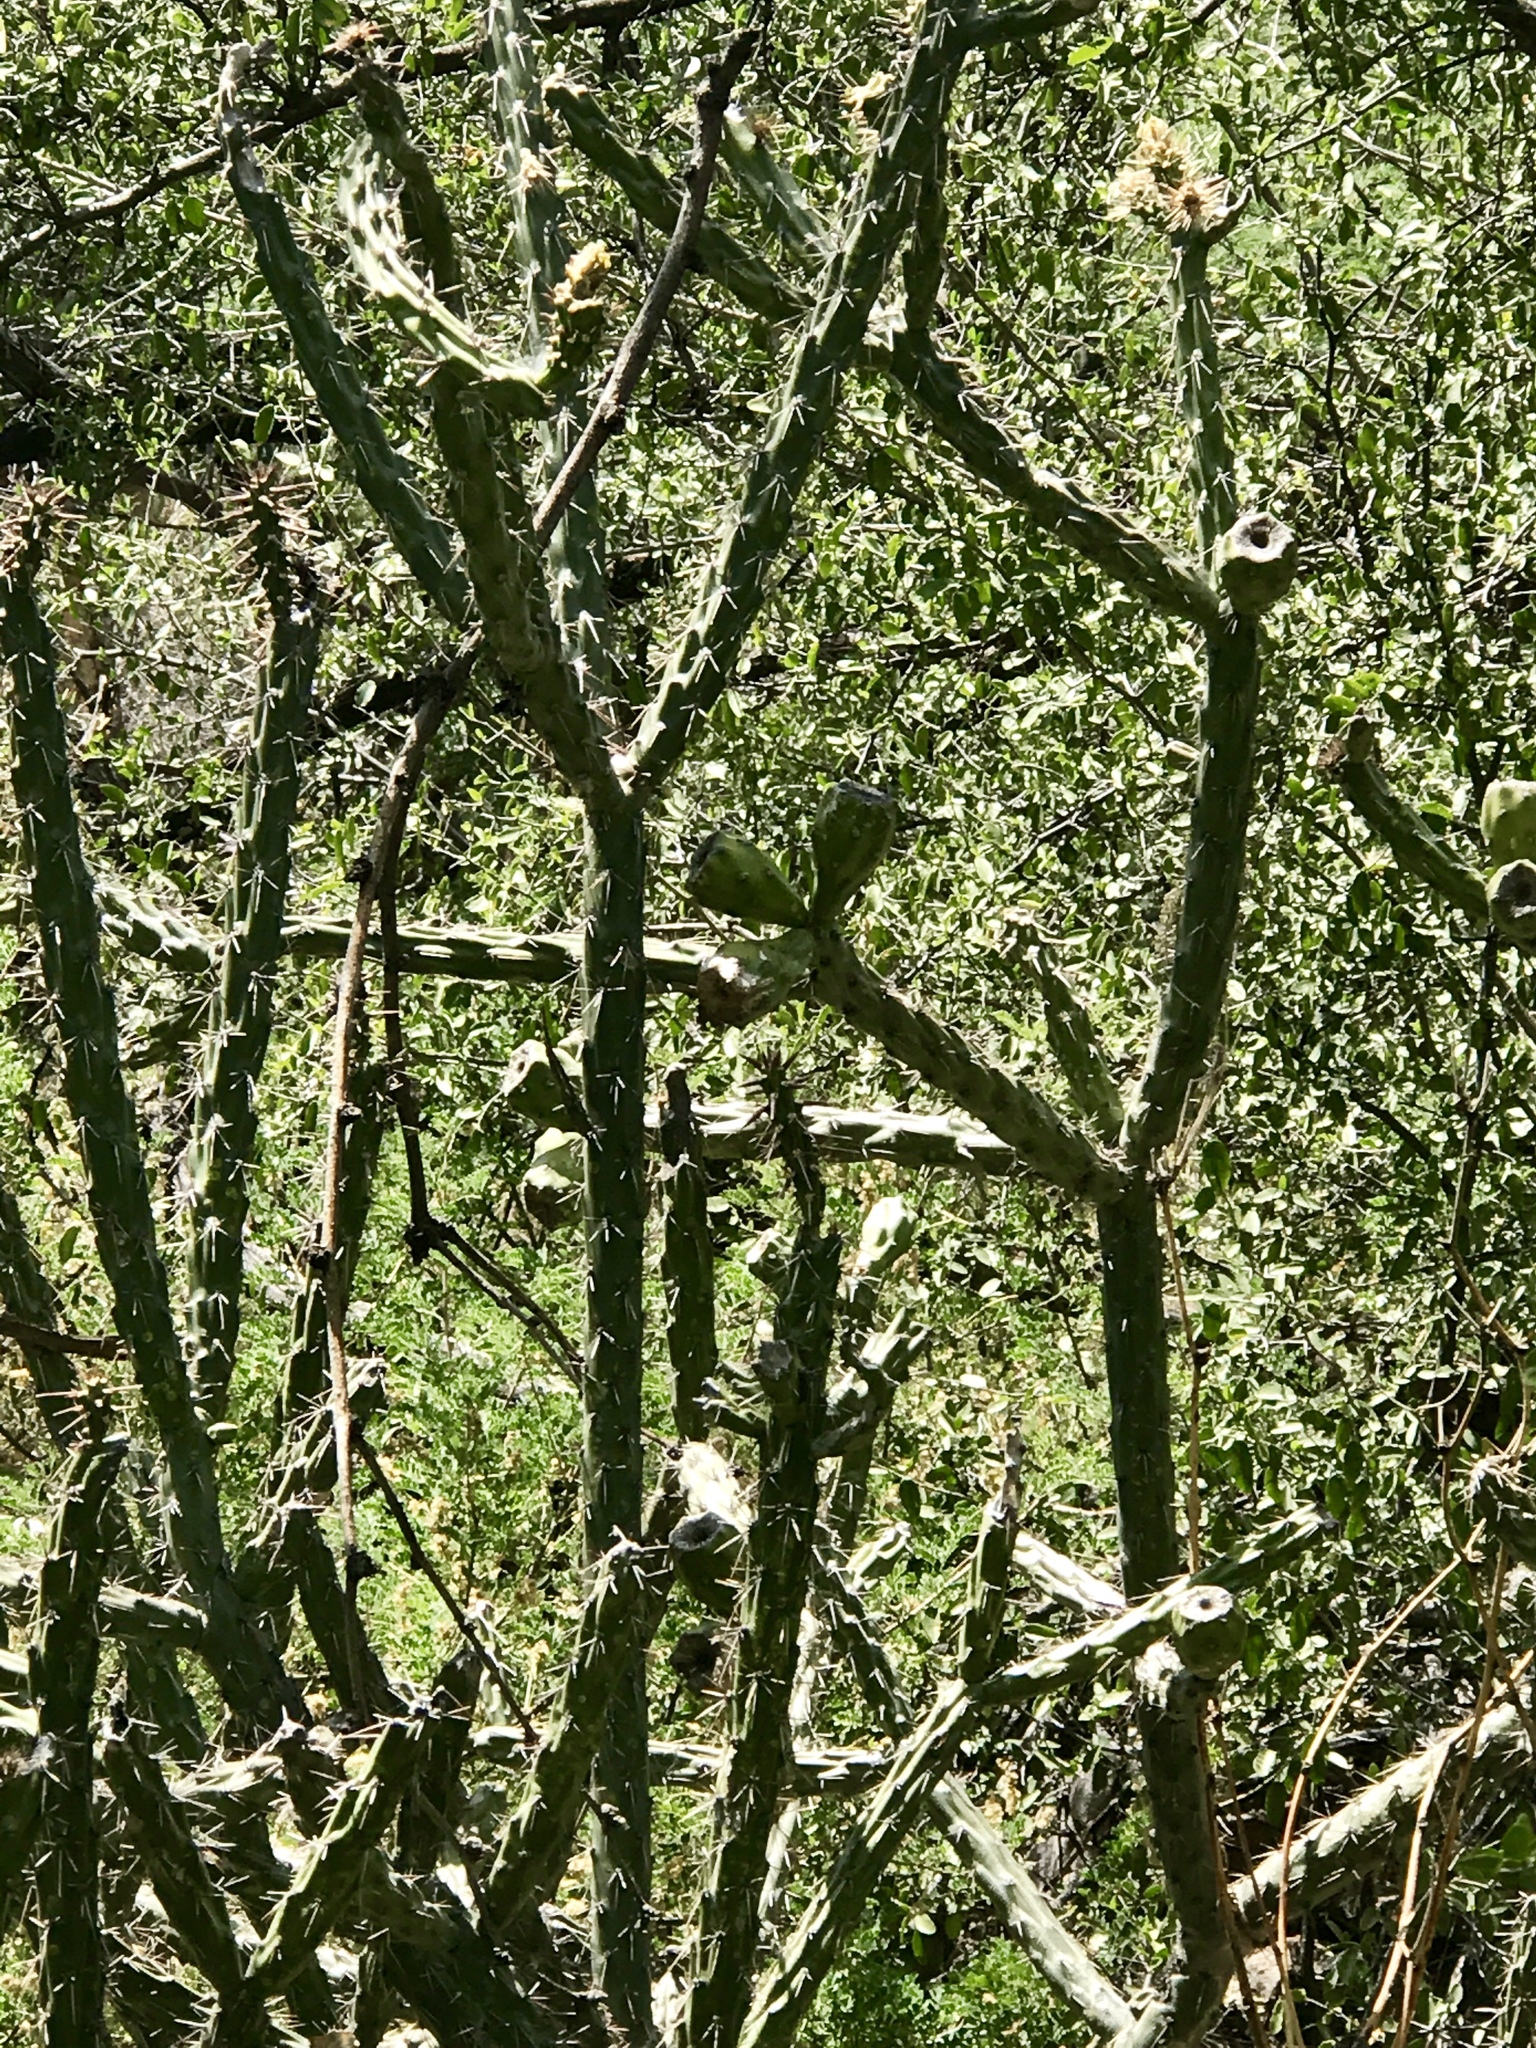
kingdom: Plantae
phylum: Tracheophyta
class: Magnoliopsida
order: Caryophyllales
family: Cactaceae
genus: Cylindropuntia
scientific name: Cylindropuntia thurberi
